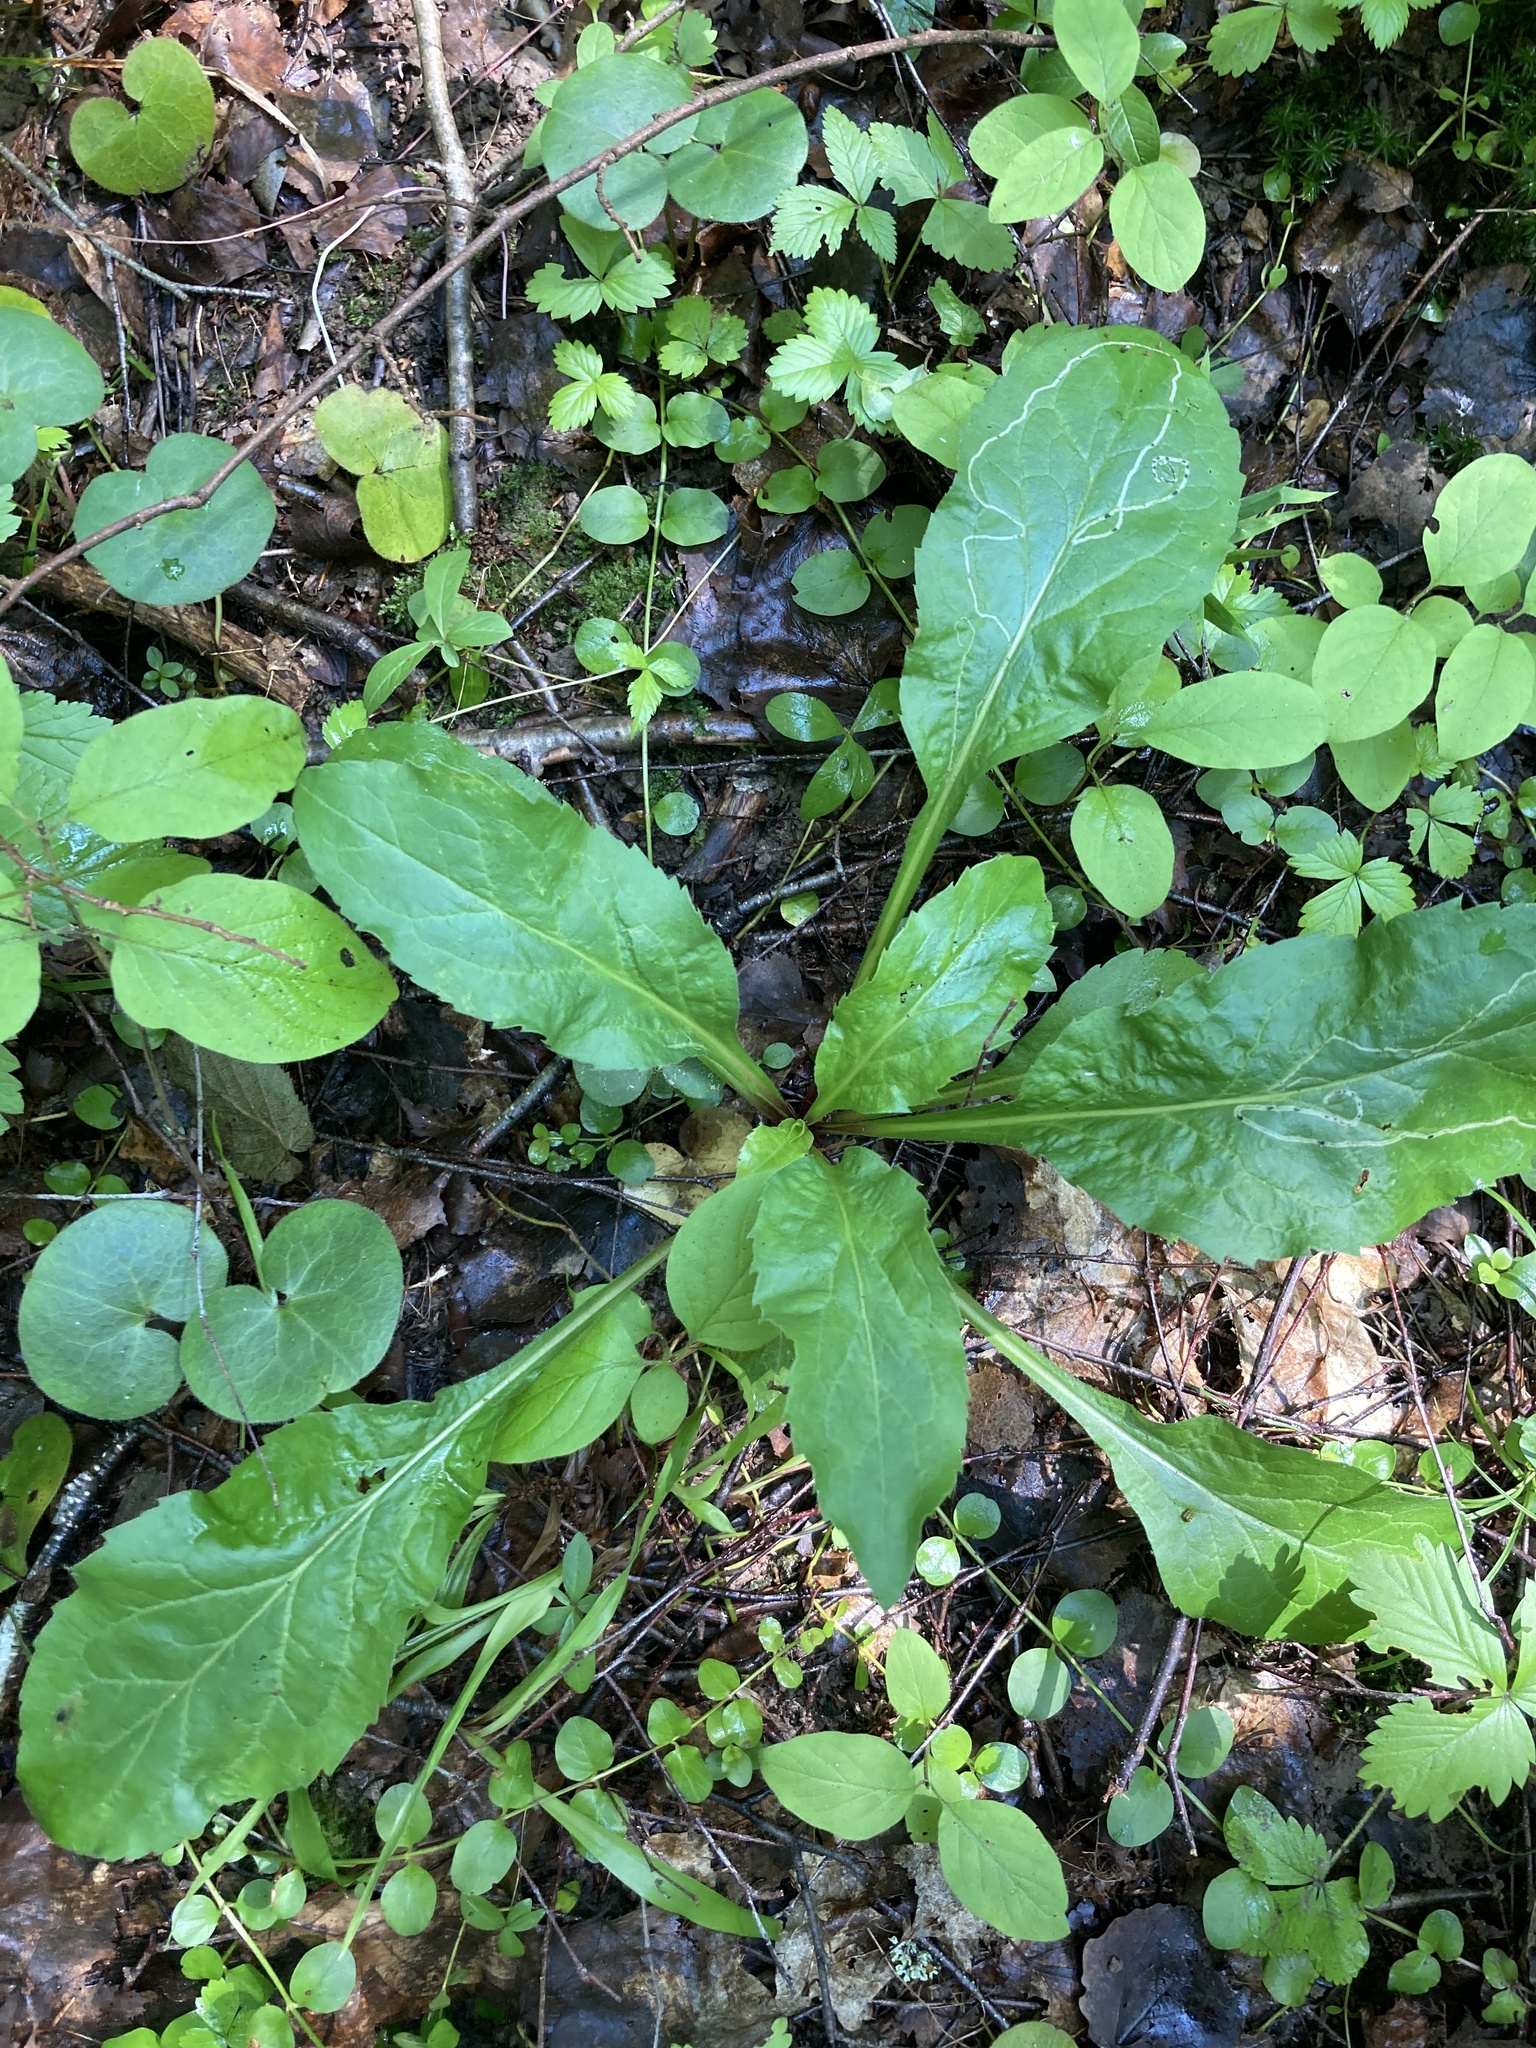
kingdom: Plantae
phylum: Tracheophyta
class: Magnoliopsida
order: Asterales
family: Asteraceae
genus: Solidago
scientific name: Solidago virgaurea
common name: Goldenrod
